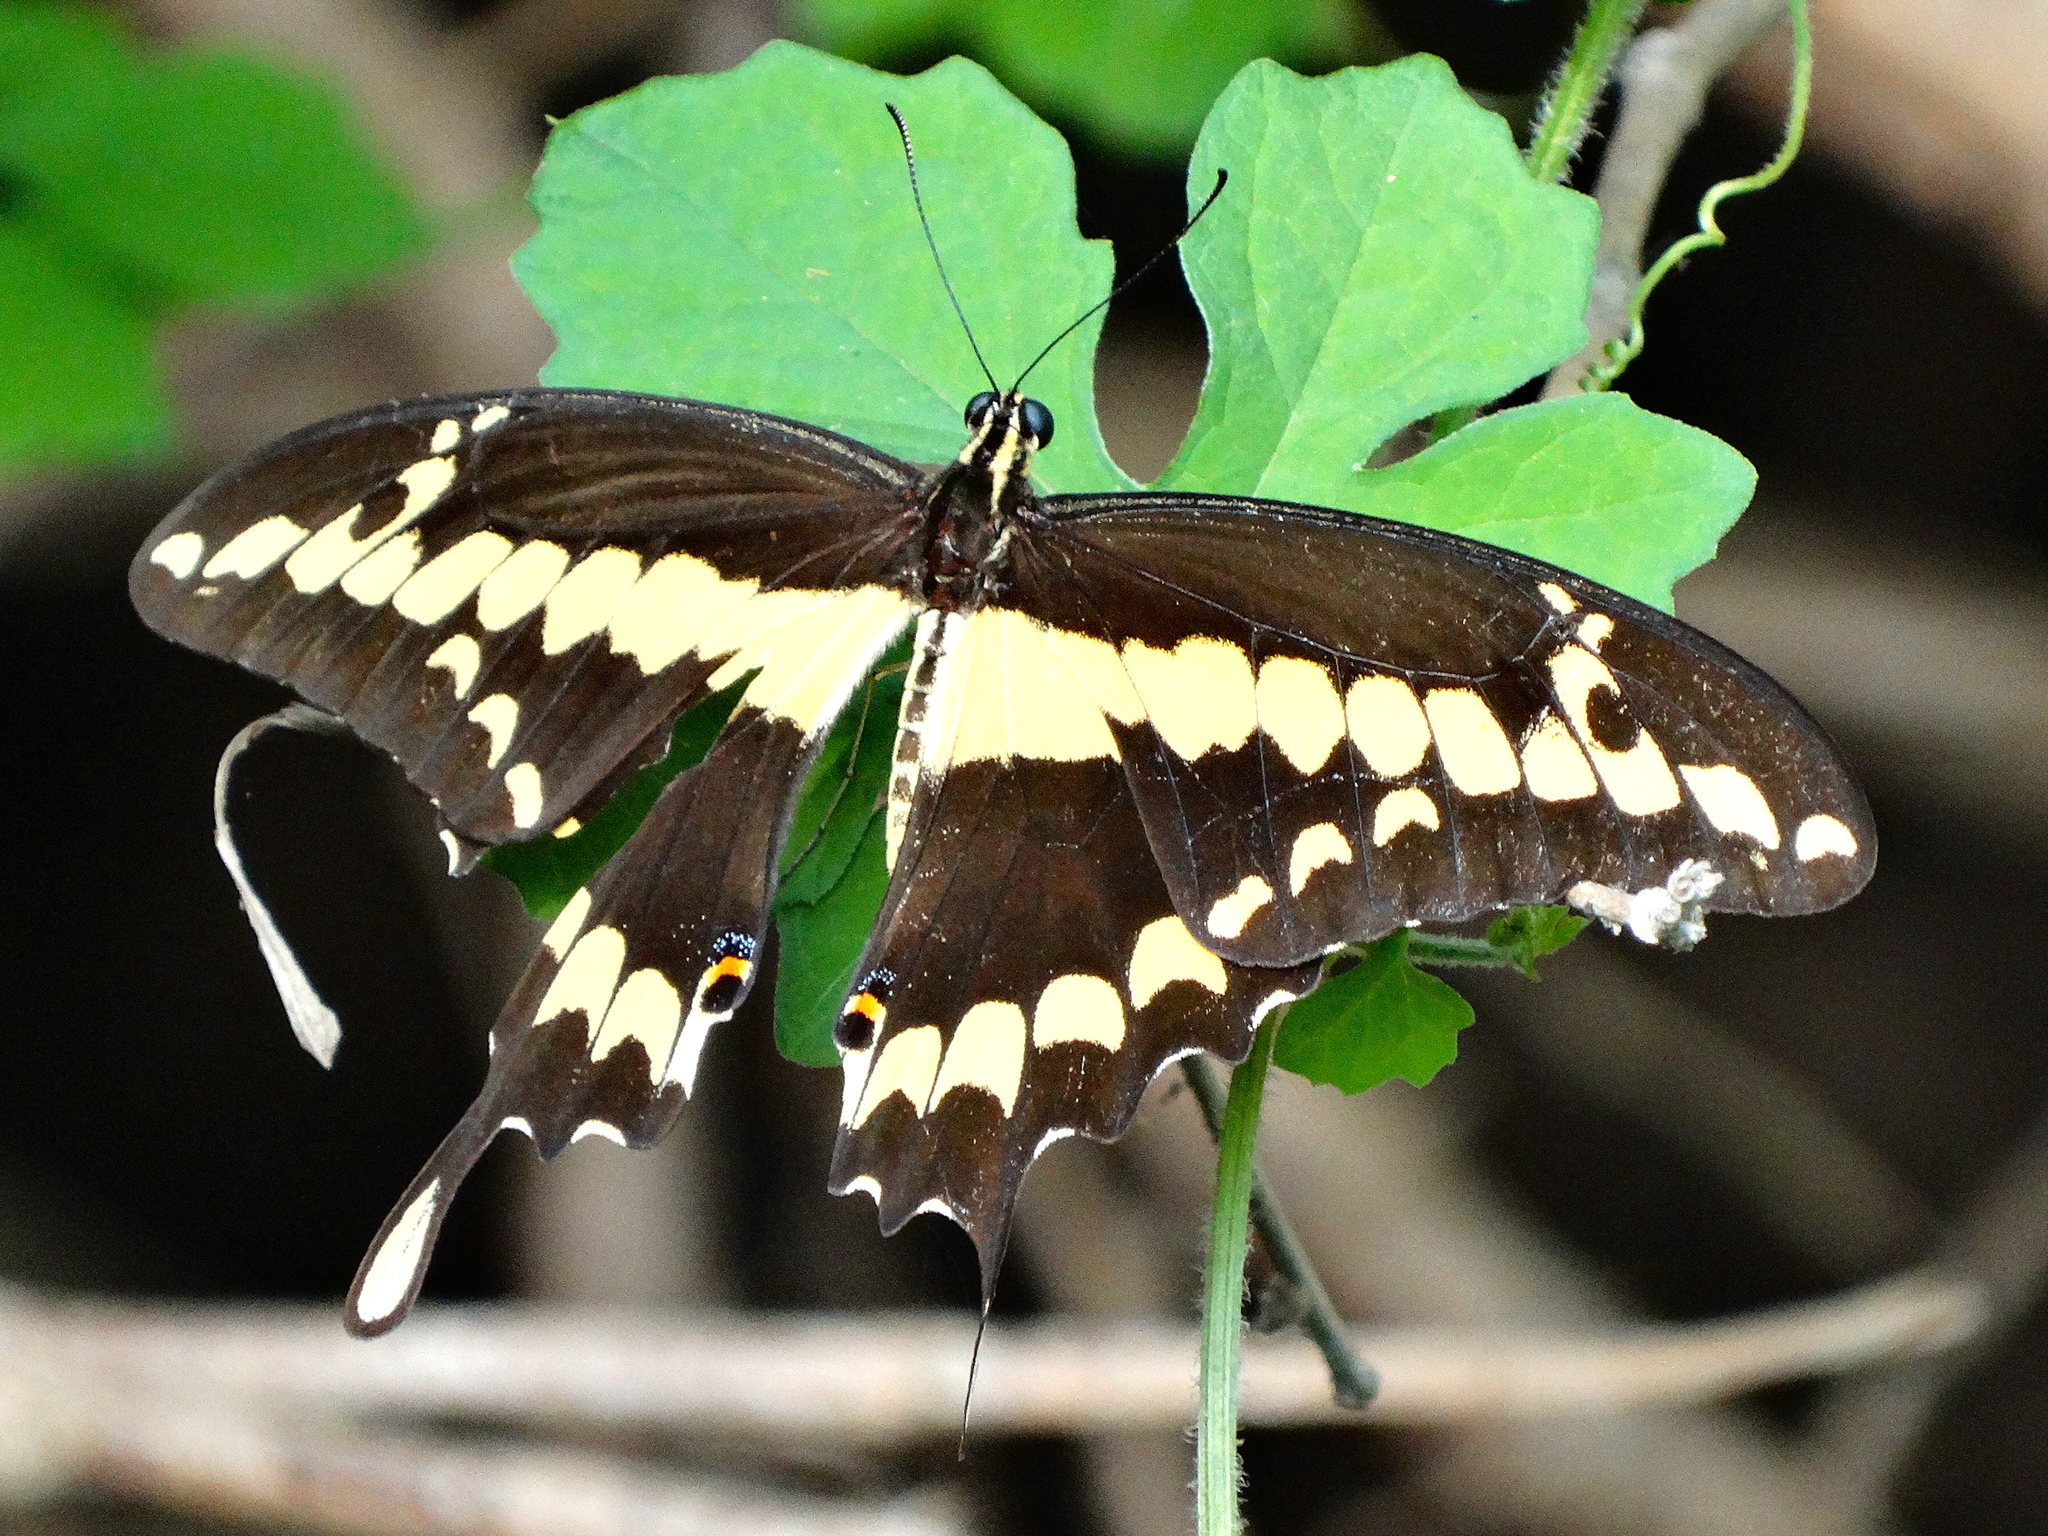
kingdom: Animalia
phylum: Arthropoda
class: Insecta
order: Lepidoptera
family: Papilionidae
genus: Papilio
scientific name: Papilio rumiko
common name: Western giant swallowtail
